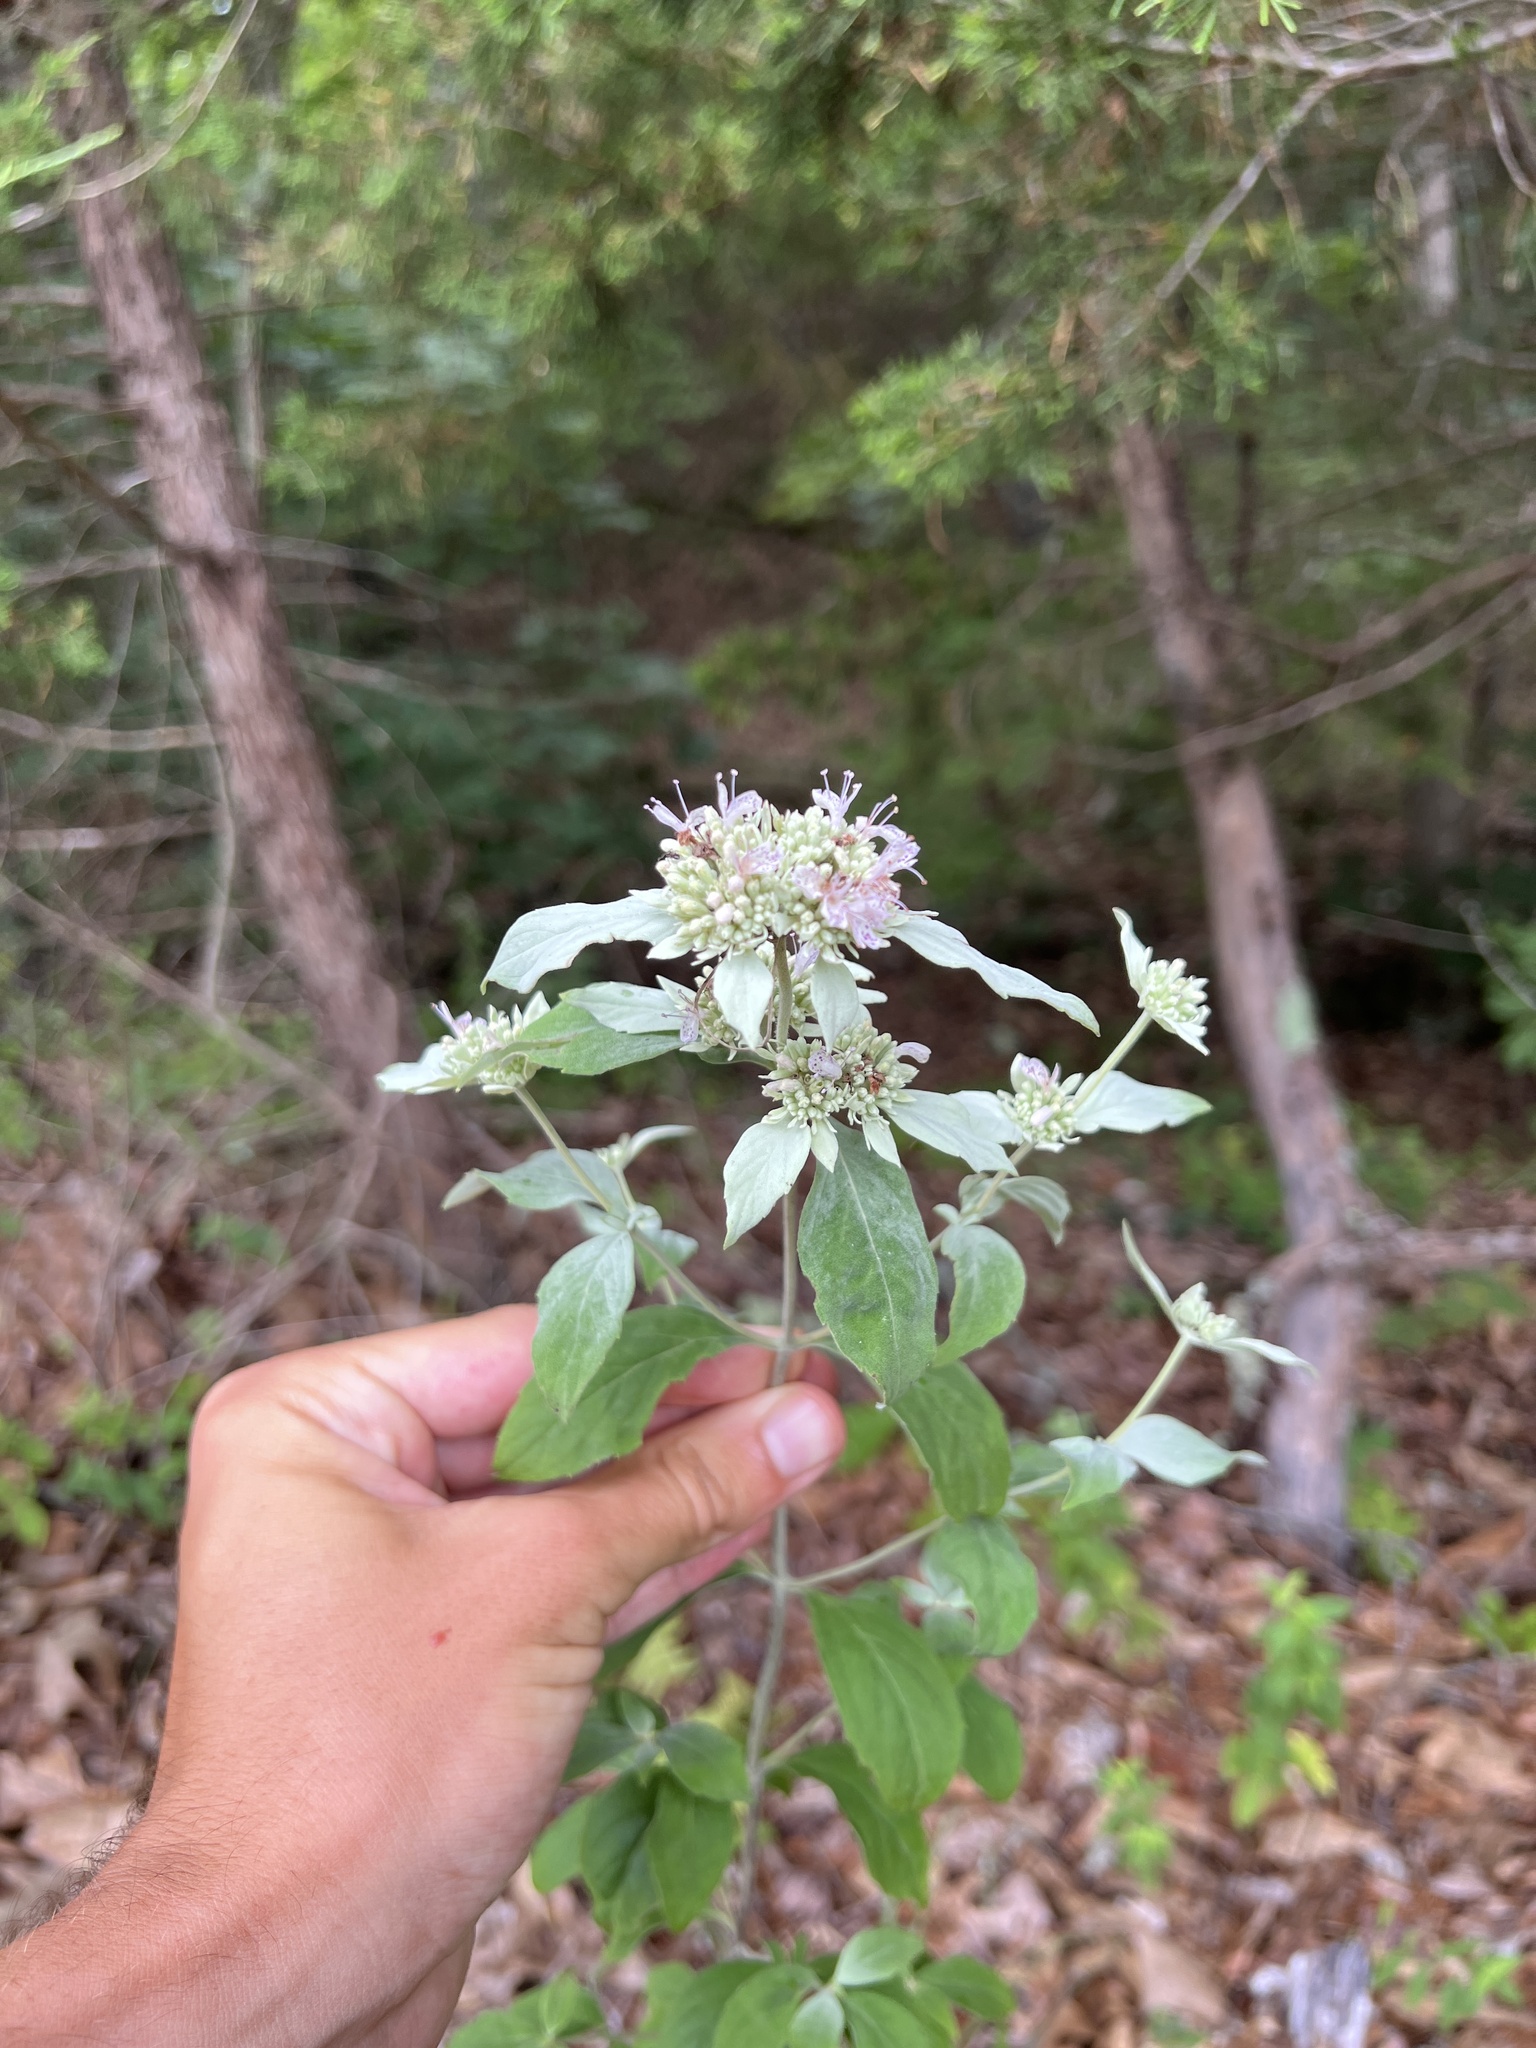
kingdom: Plantae
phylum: Tracheophyta
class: Magnoliopsida
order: Lamiales
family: Lamiaceae
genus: Pycnanthemum
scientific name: Pycnanthemum albescens
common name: White-leaf mountain-mint
